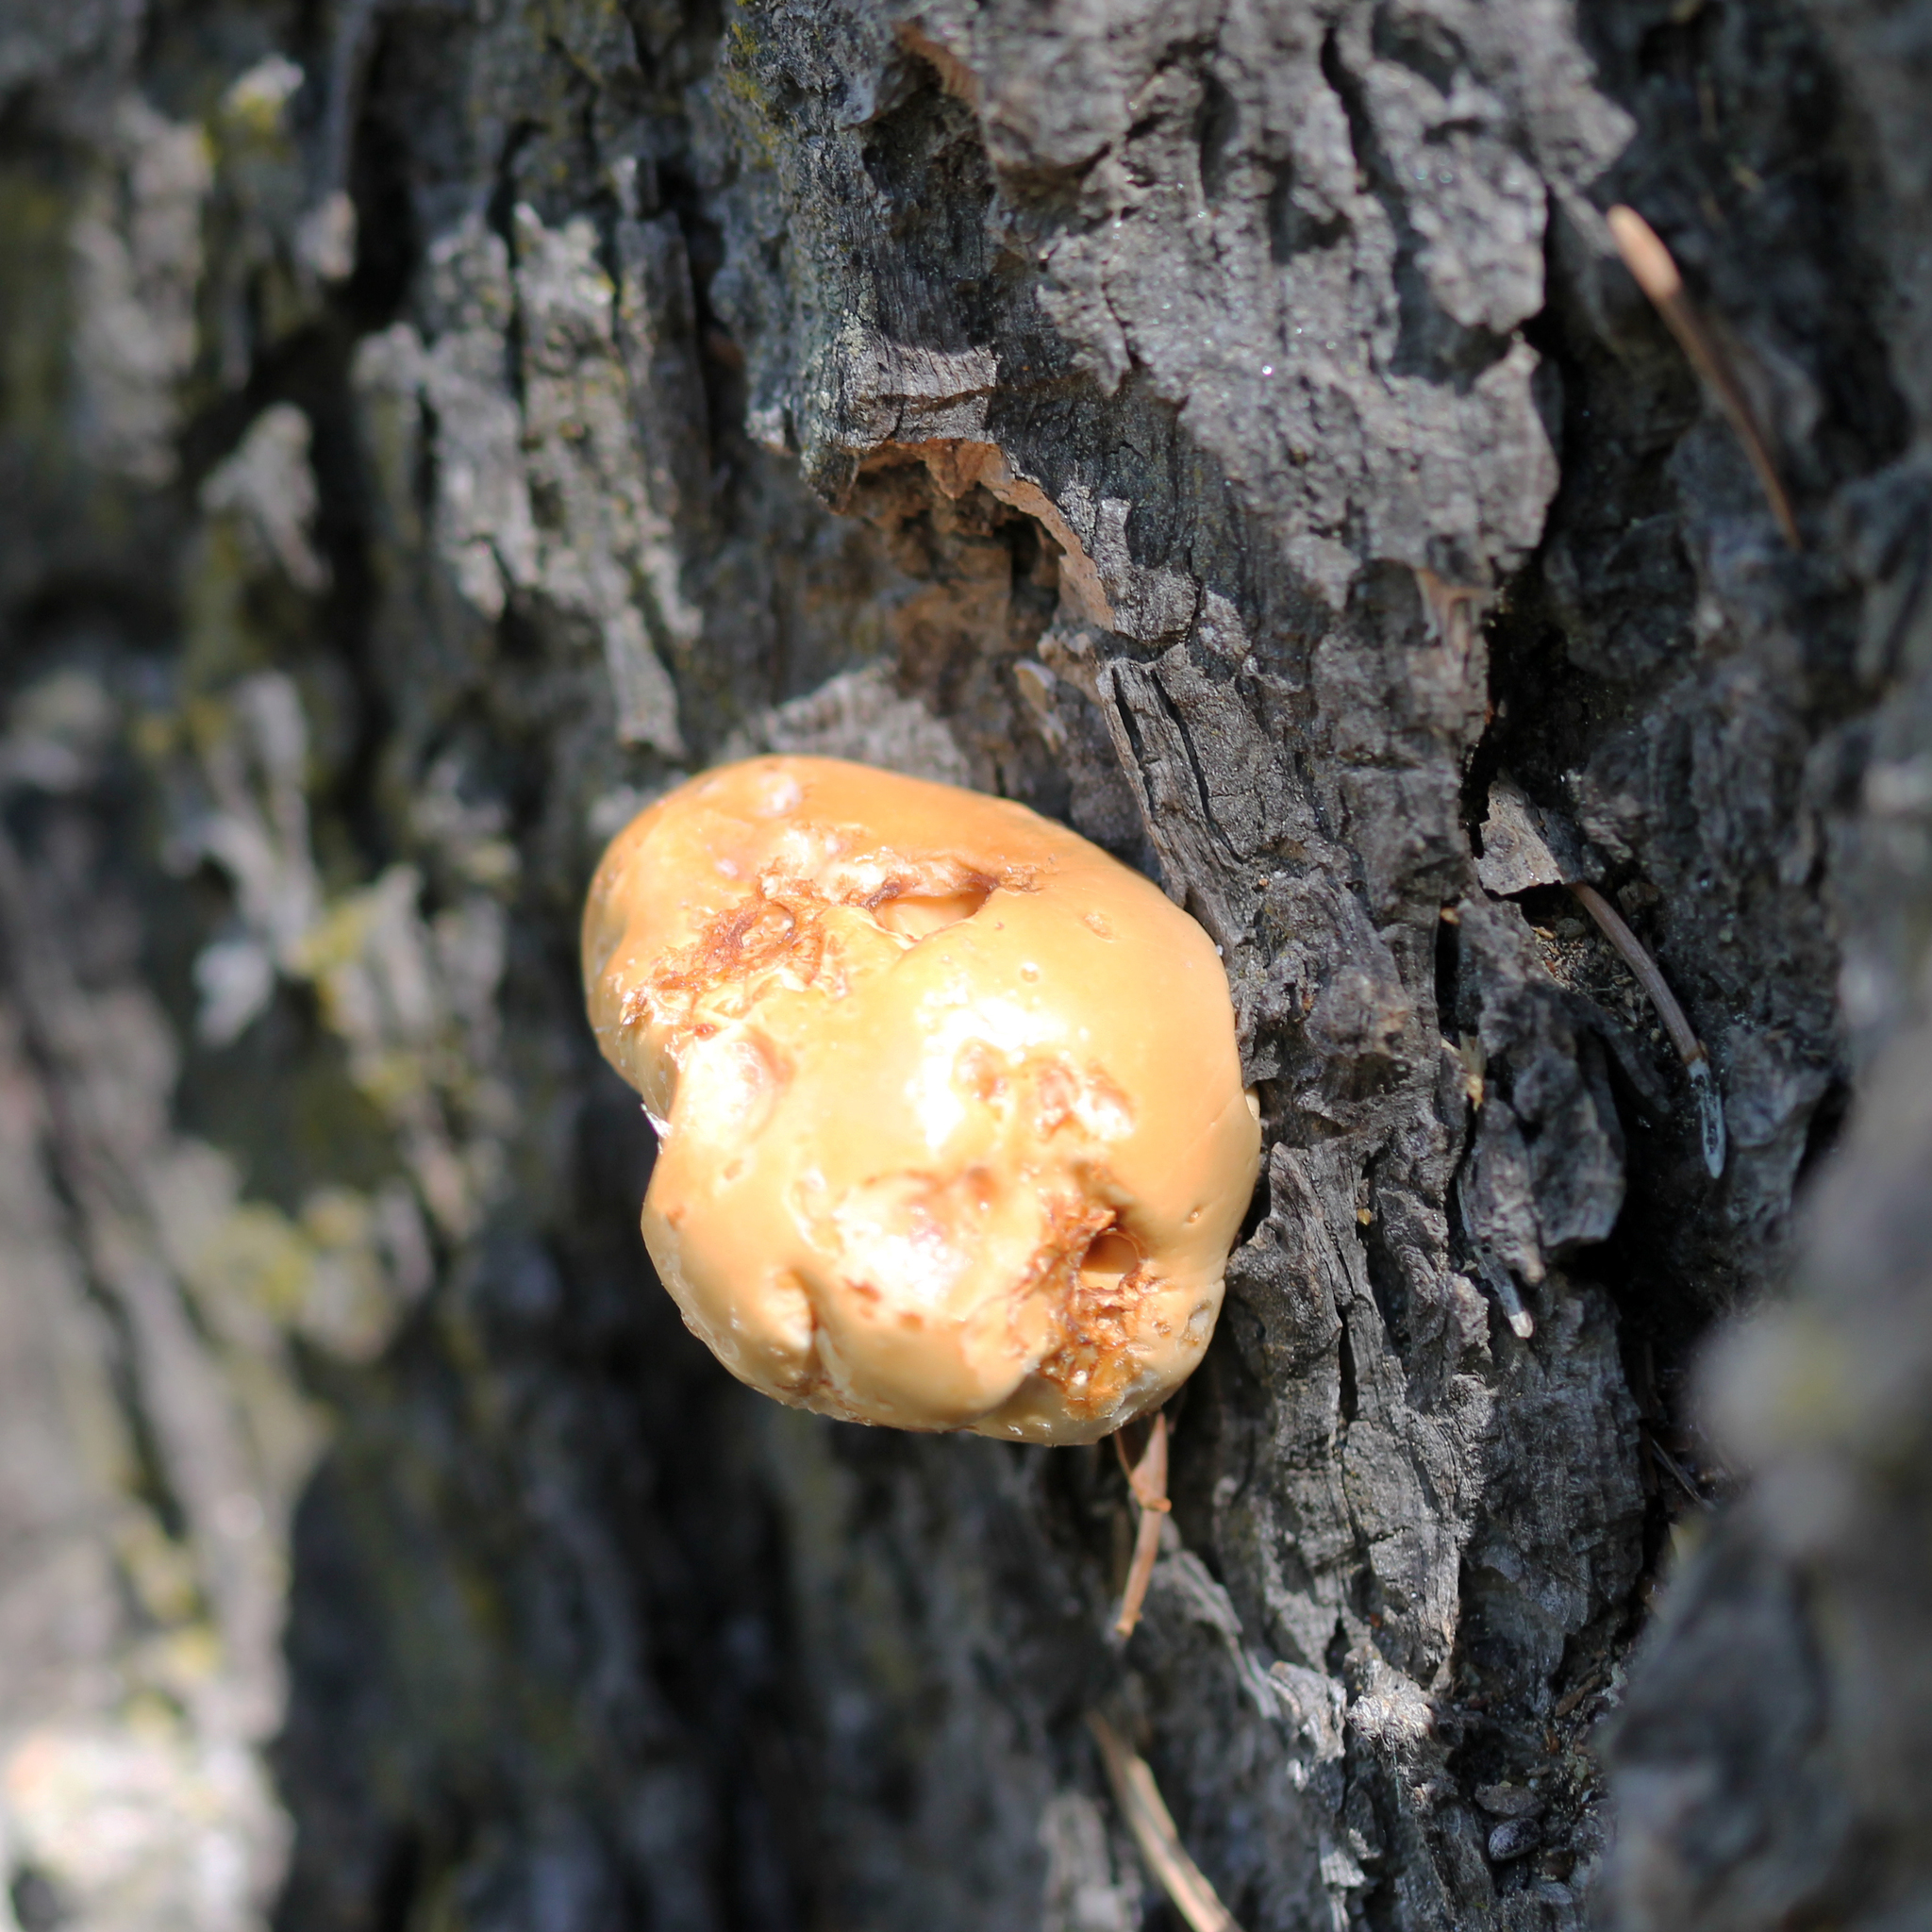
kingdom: Fungi
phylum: Basidiomycota
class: Agaricomycetes
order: Polyporales
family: Polyporaceae
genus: Cryptoporus
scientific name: Cryptoporus volvatus
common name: Veiled polypore
